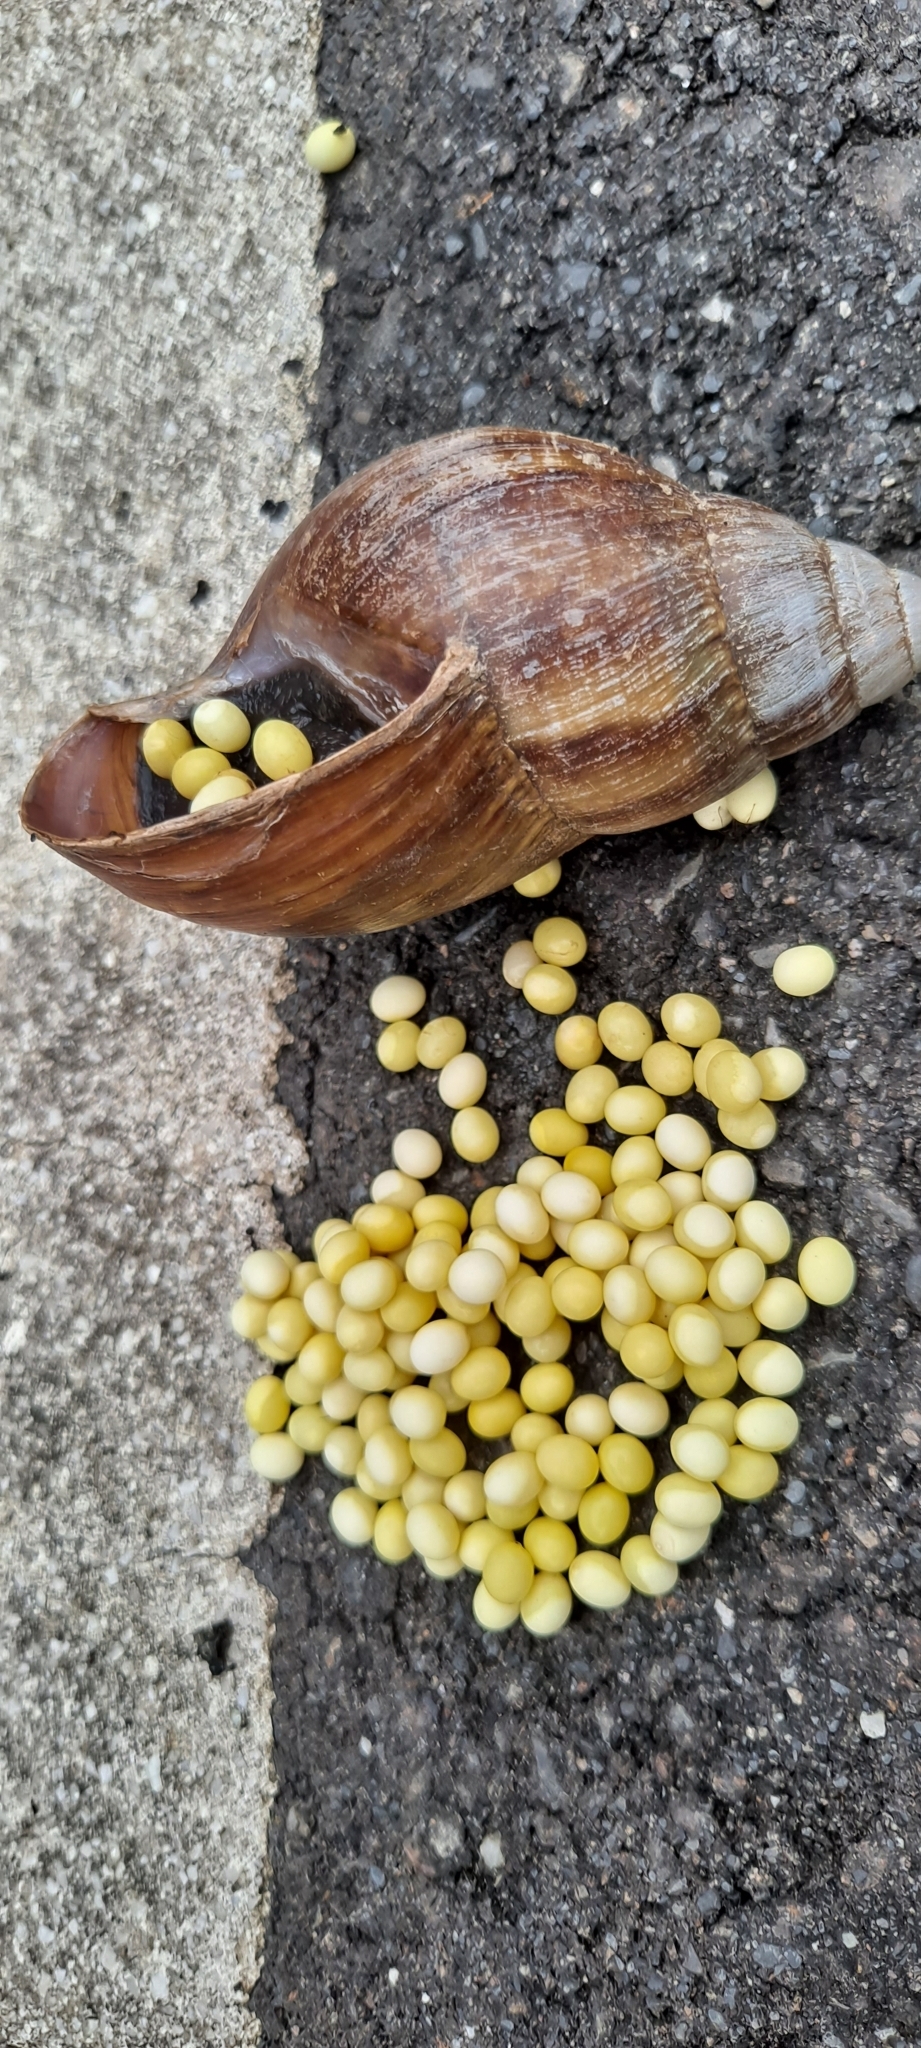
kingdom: Animalia
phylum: Mollusca
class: Gastropoda
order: Stylommatophora
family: Achatinidae
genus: Lissachatina
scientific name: Lissachatina fulica
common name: Giant african snail
